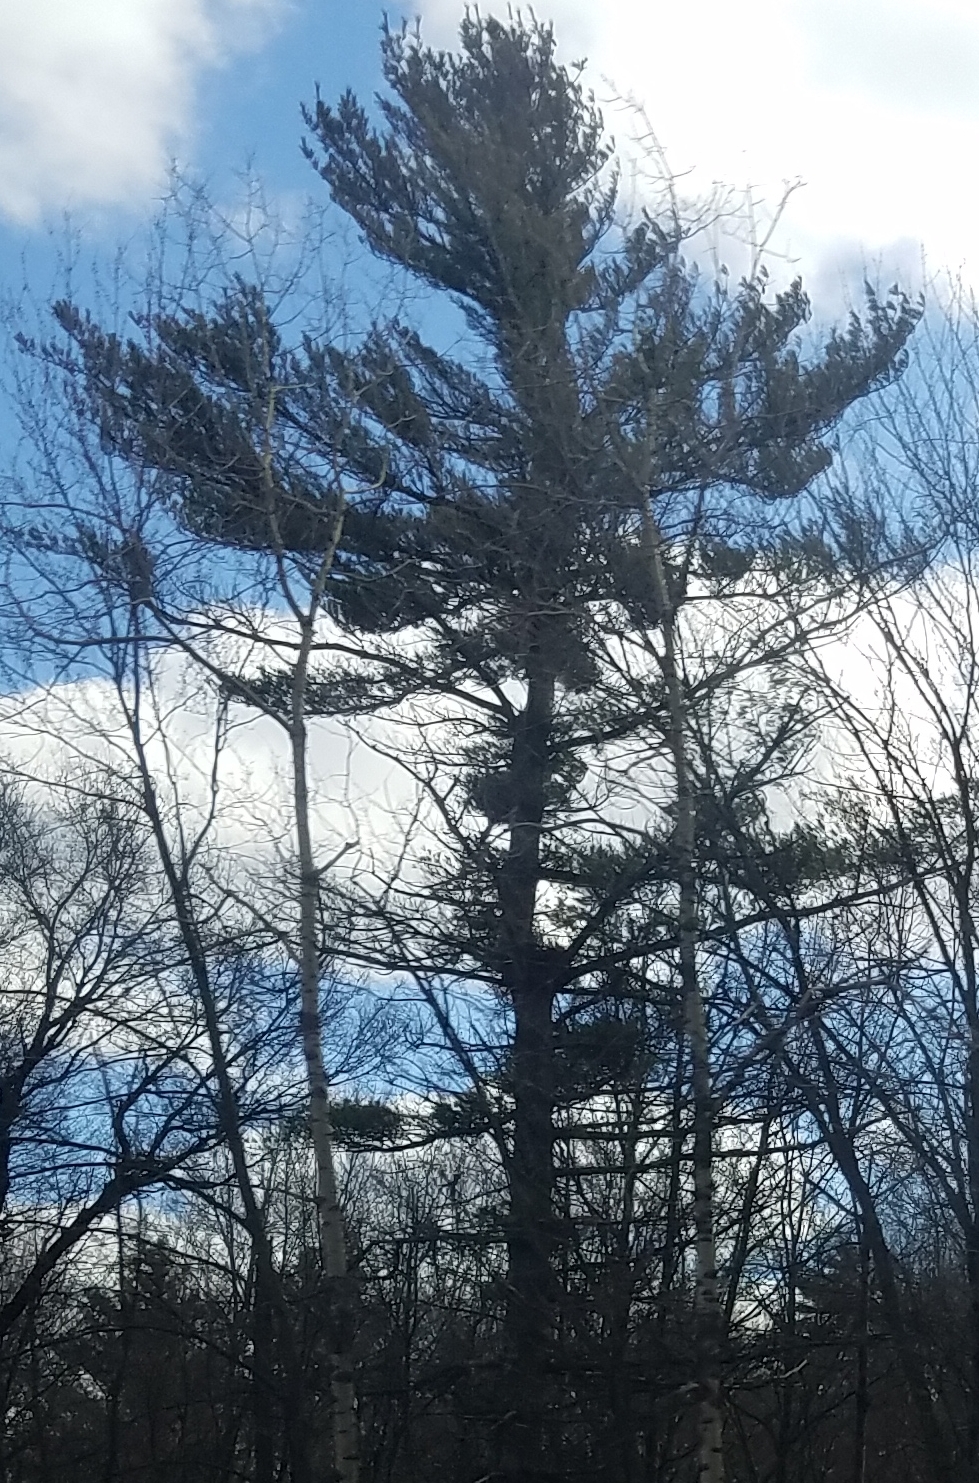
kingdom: Plantae
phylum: Tracheophyta
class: Pinopsida
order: Pinales
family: Pinaceae
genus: Pinus
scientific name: Pinus strobus
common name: Weymouth pine
